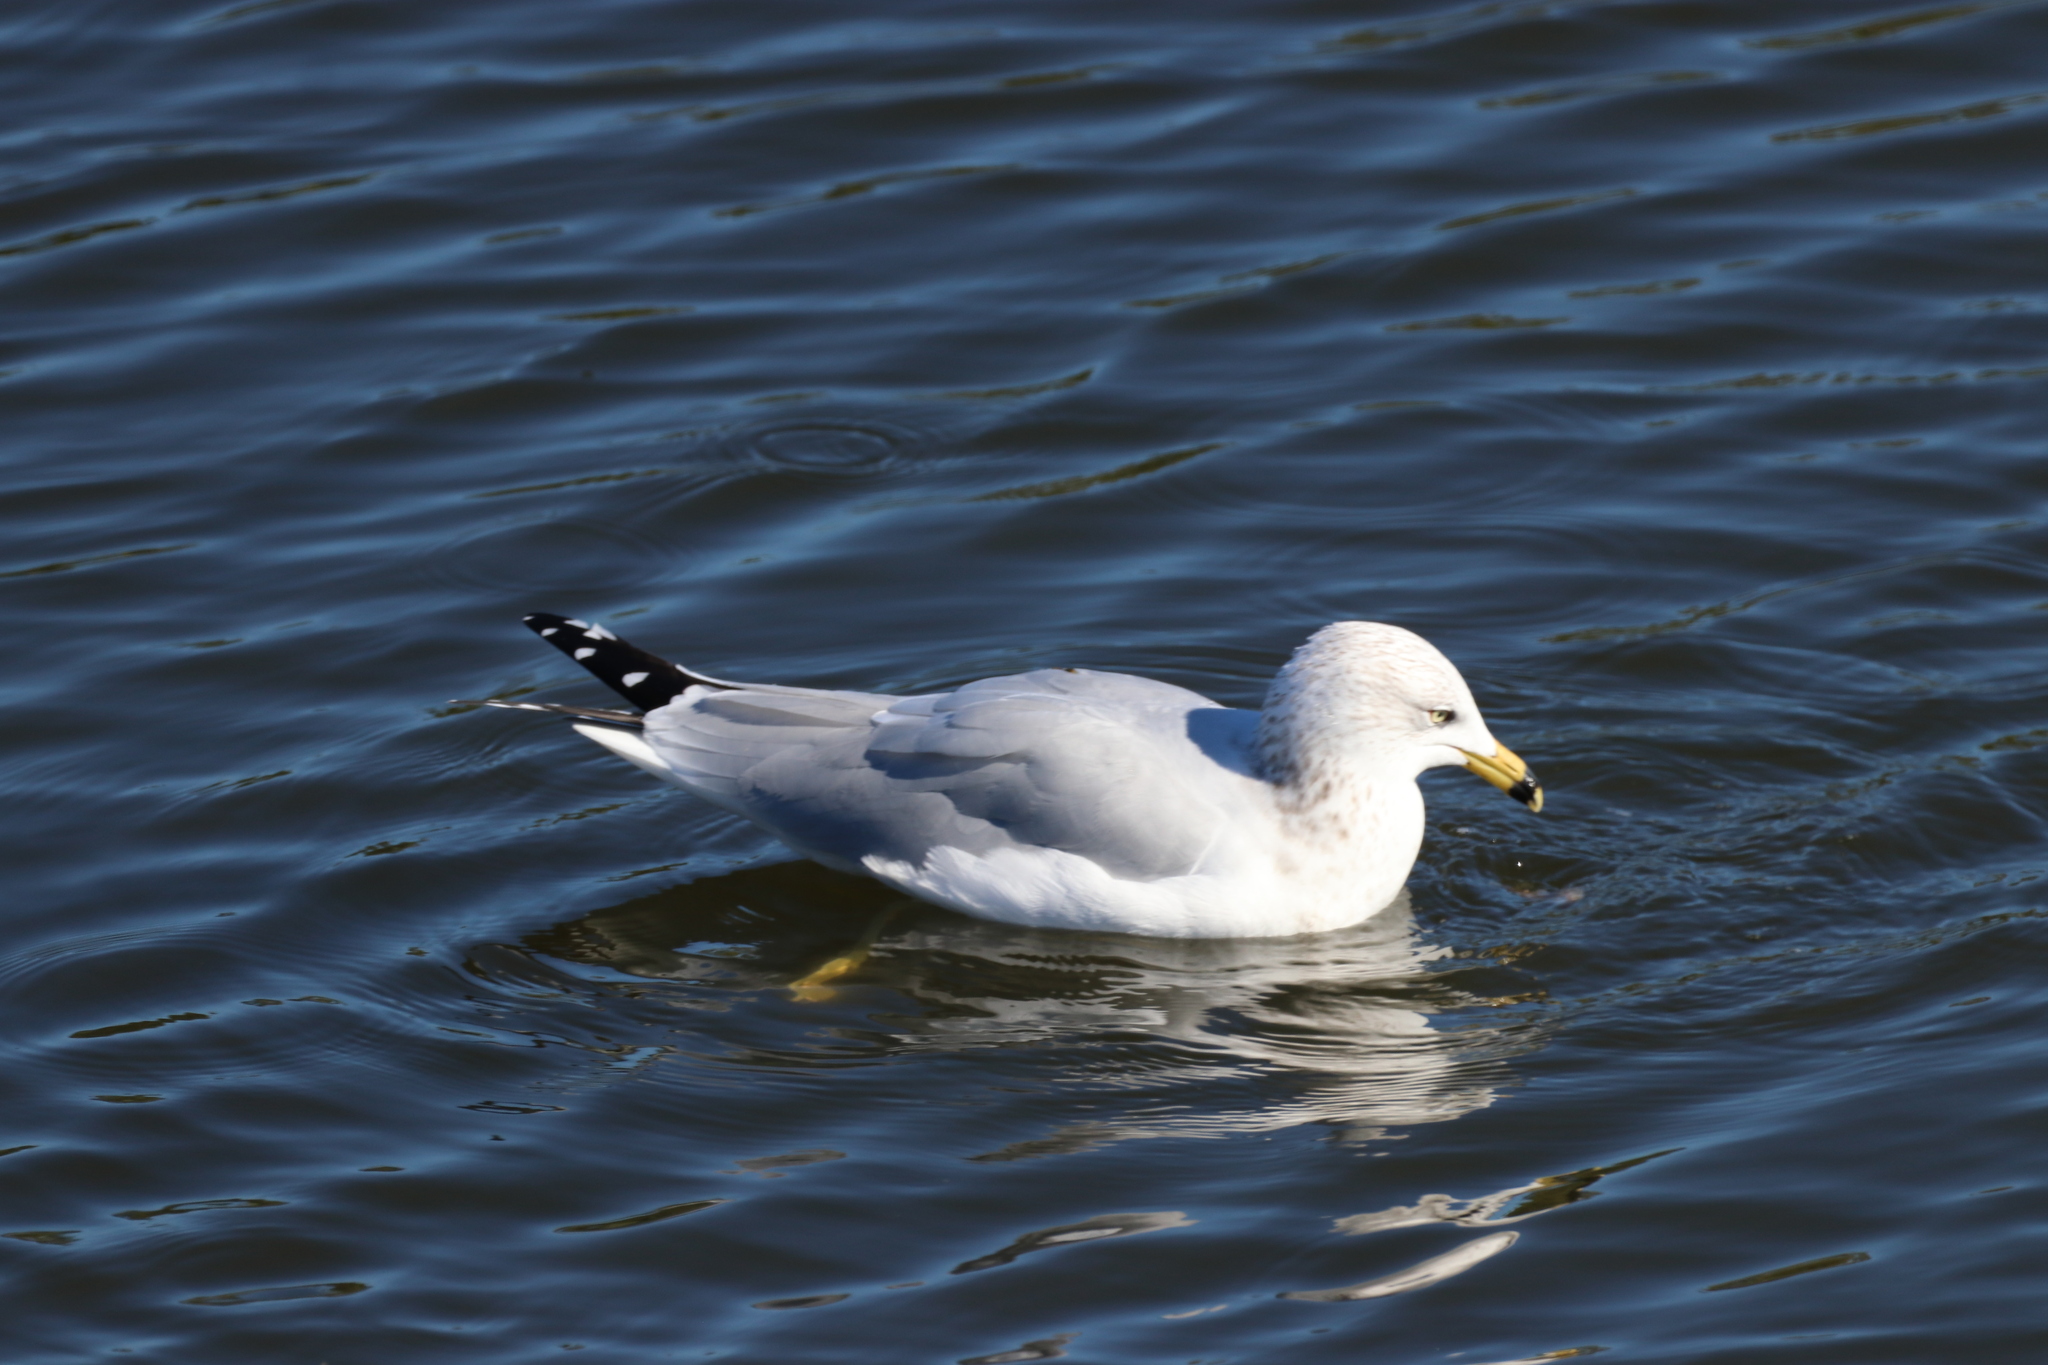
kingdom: Animalia
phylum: Chordata
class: Aves
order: Charadriiformes
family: Laridae
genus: Larus
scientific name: Larus delawarensis
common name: Ring-billed gull
